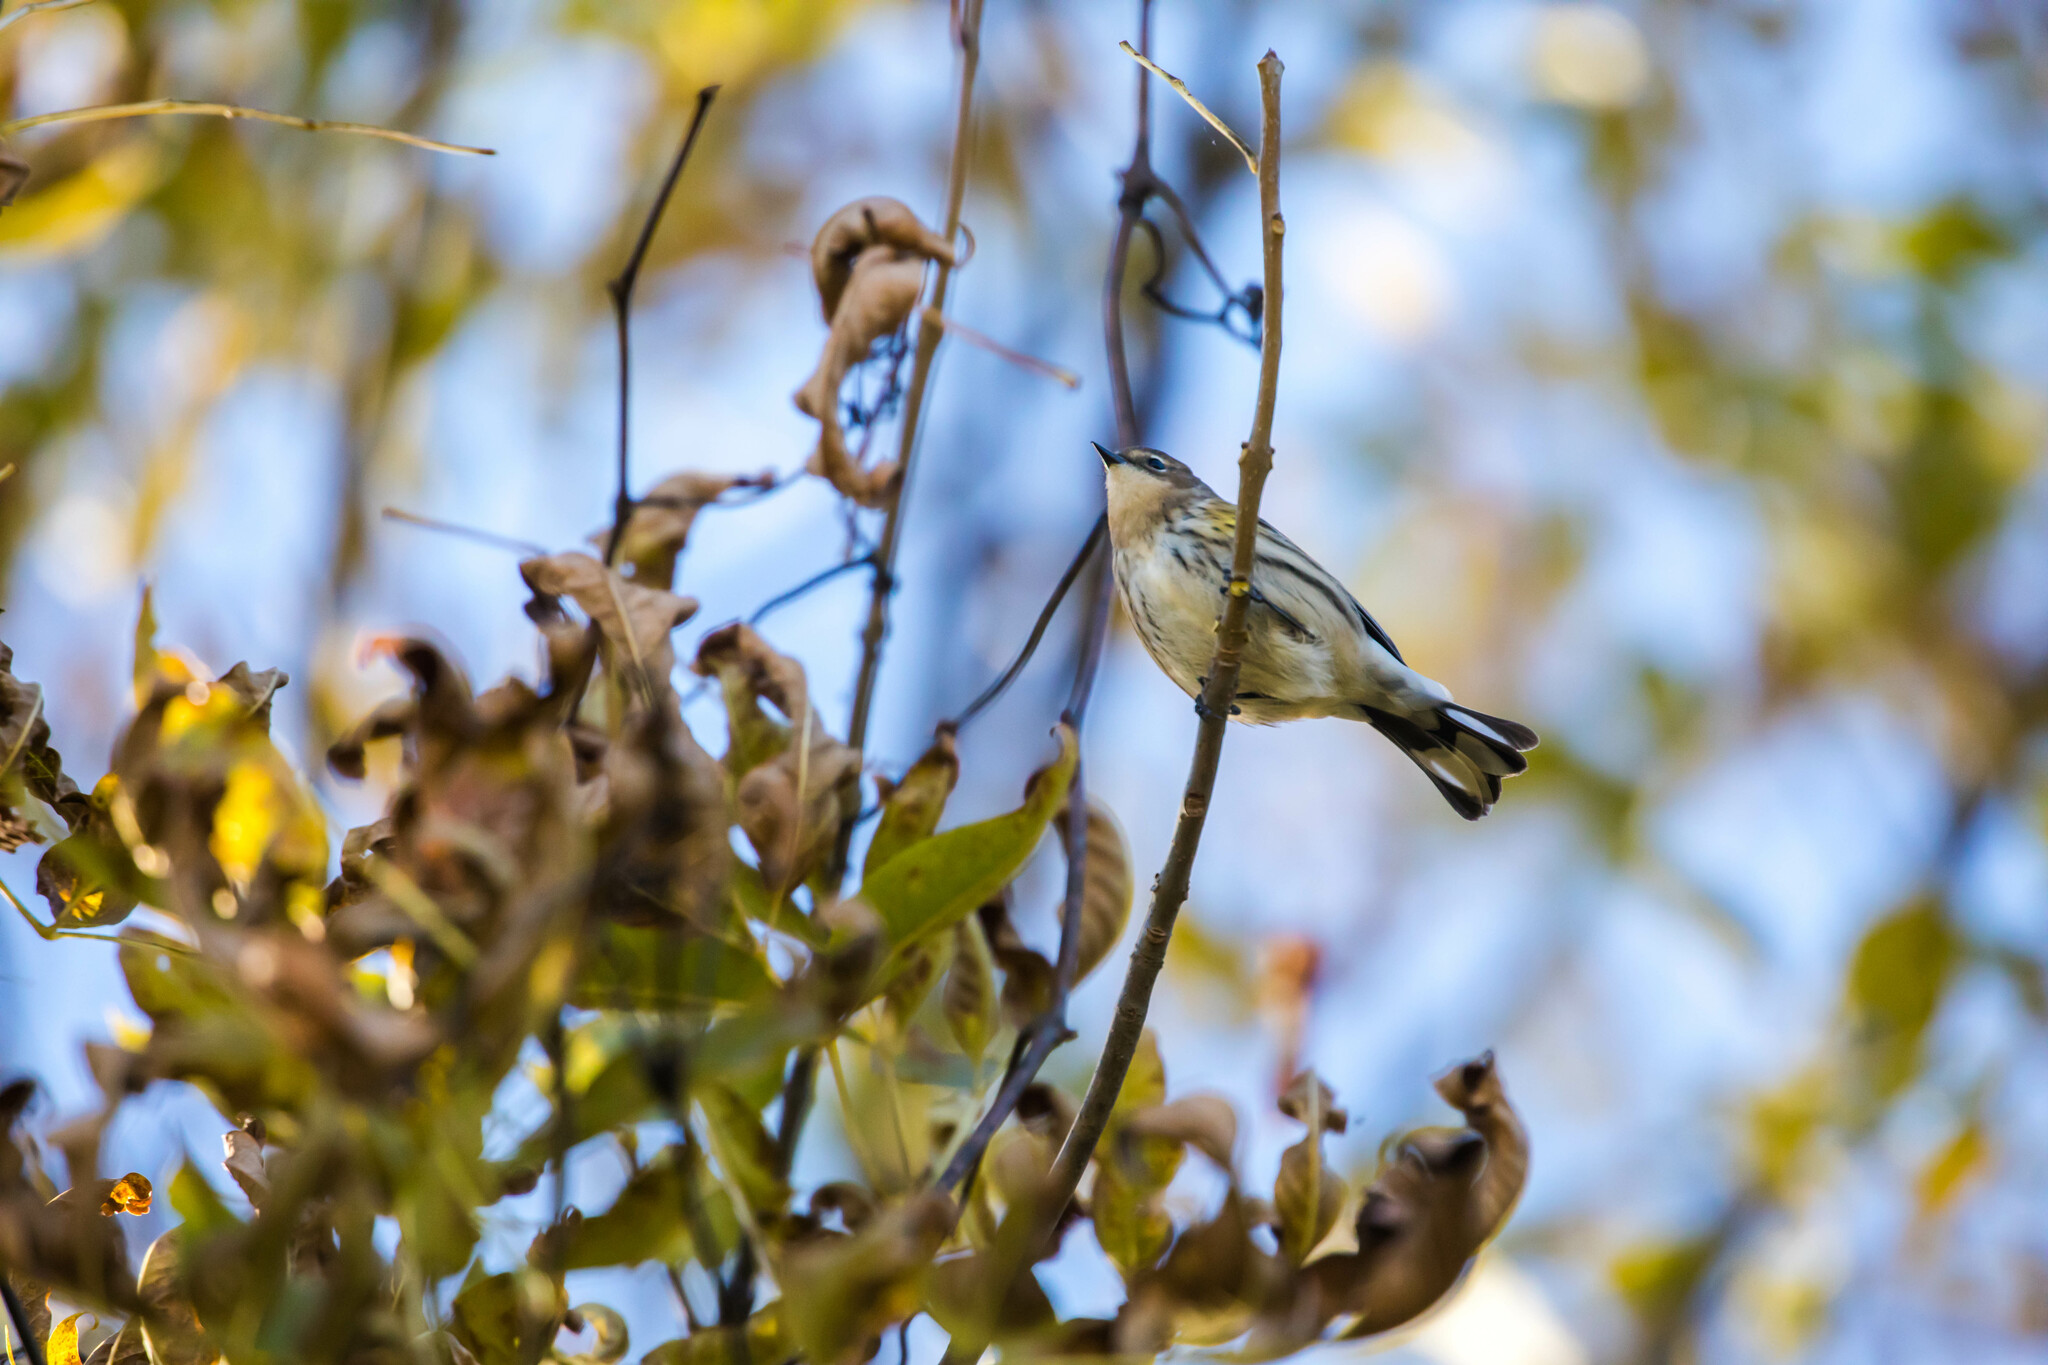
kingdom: Animalia
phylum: Chordata
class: Aves
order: Passeriformes
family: Parulidae
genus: Setophaga
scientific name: Setophaga coronata
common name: Myrtle warbler
